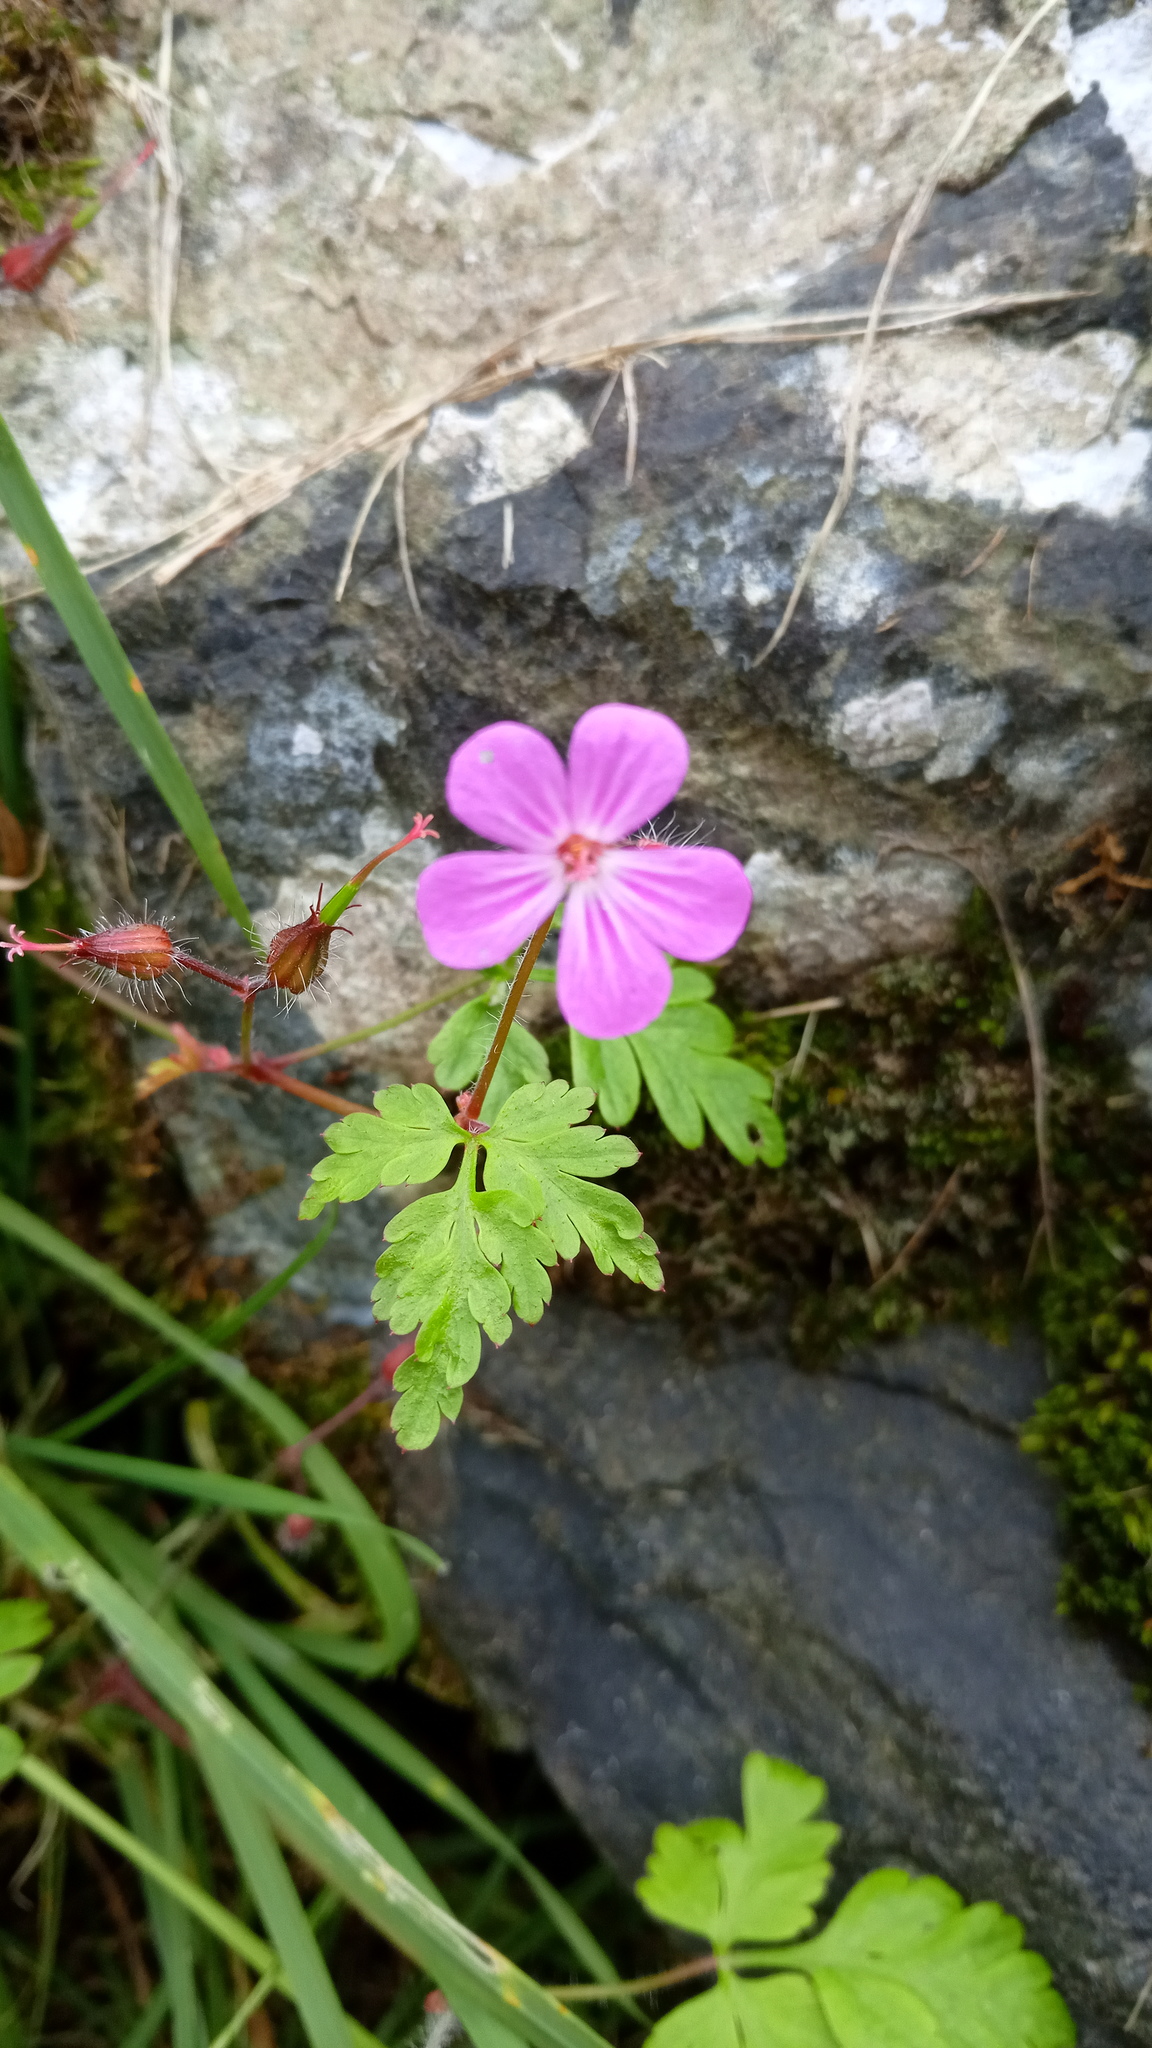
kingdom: Plantae
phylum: Tracheophyta
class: Magnoliopsida
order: Geraniales
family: Geraniaceae
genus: Geranium
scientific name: Geranium robertianum
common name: Herb-robert
